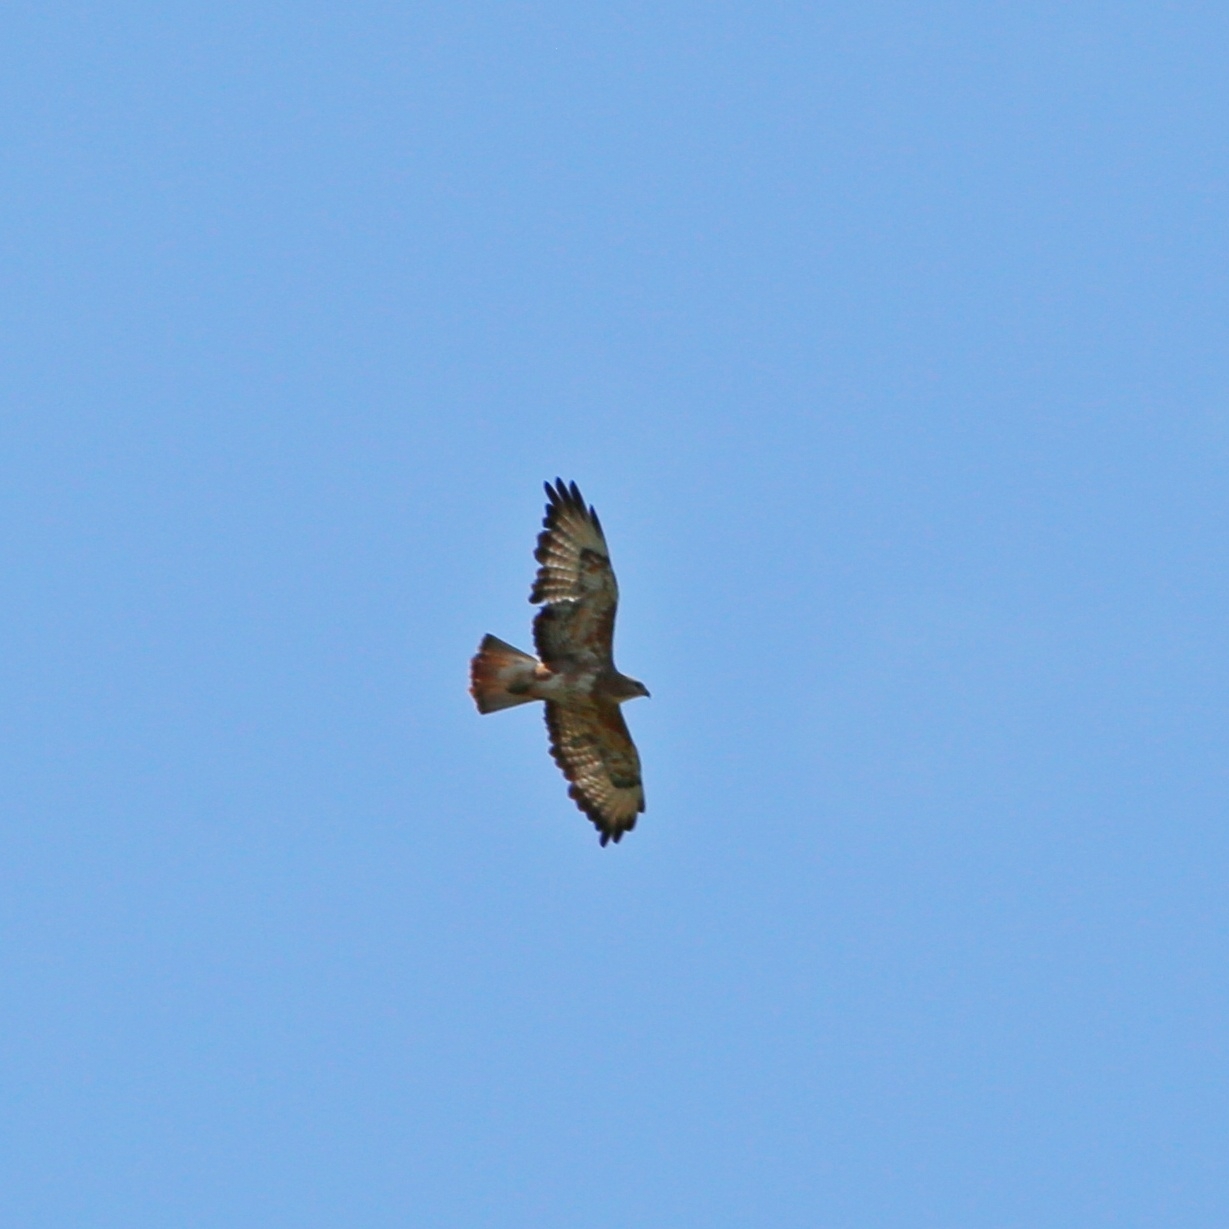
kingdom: Animalia
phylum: Chordata
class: Aves
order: Accipitriformes
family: Accipitridae
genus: Buteo
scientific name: Buteo buteo
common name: Common buzzard
